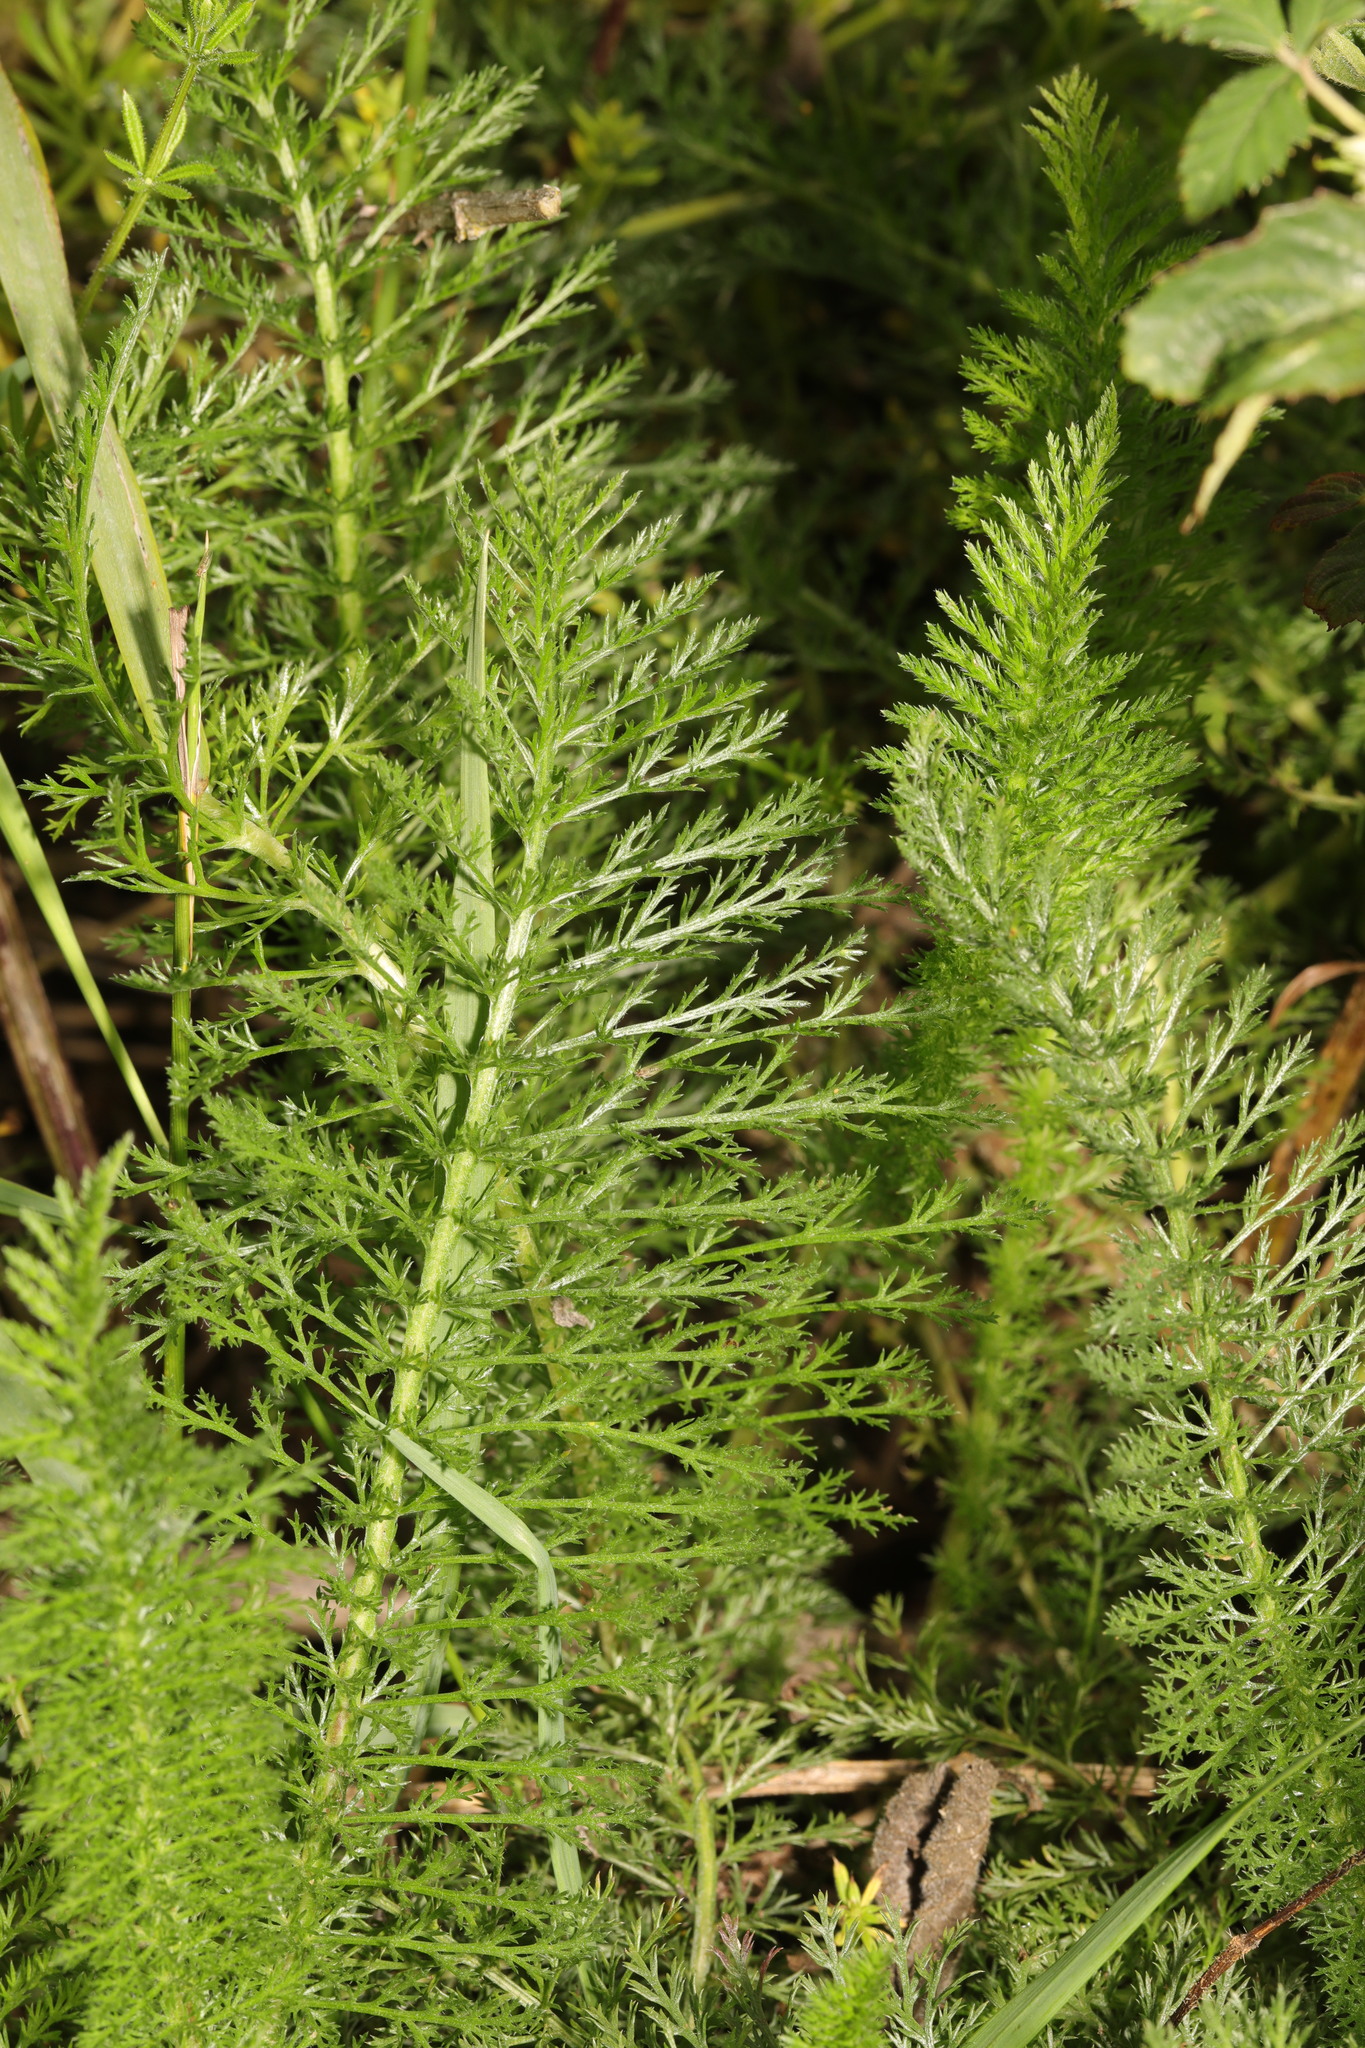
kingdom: Plantae
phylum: Tracheophyta
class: Magnoliopsida
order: Asterales
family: Asteraceae
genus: Achillea
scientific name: Achillea millefolium
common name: Yarrow
